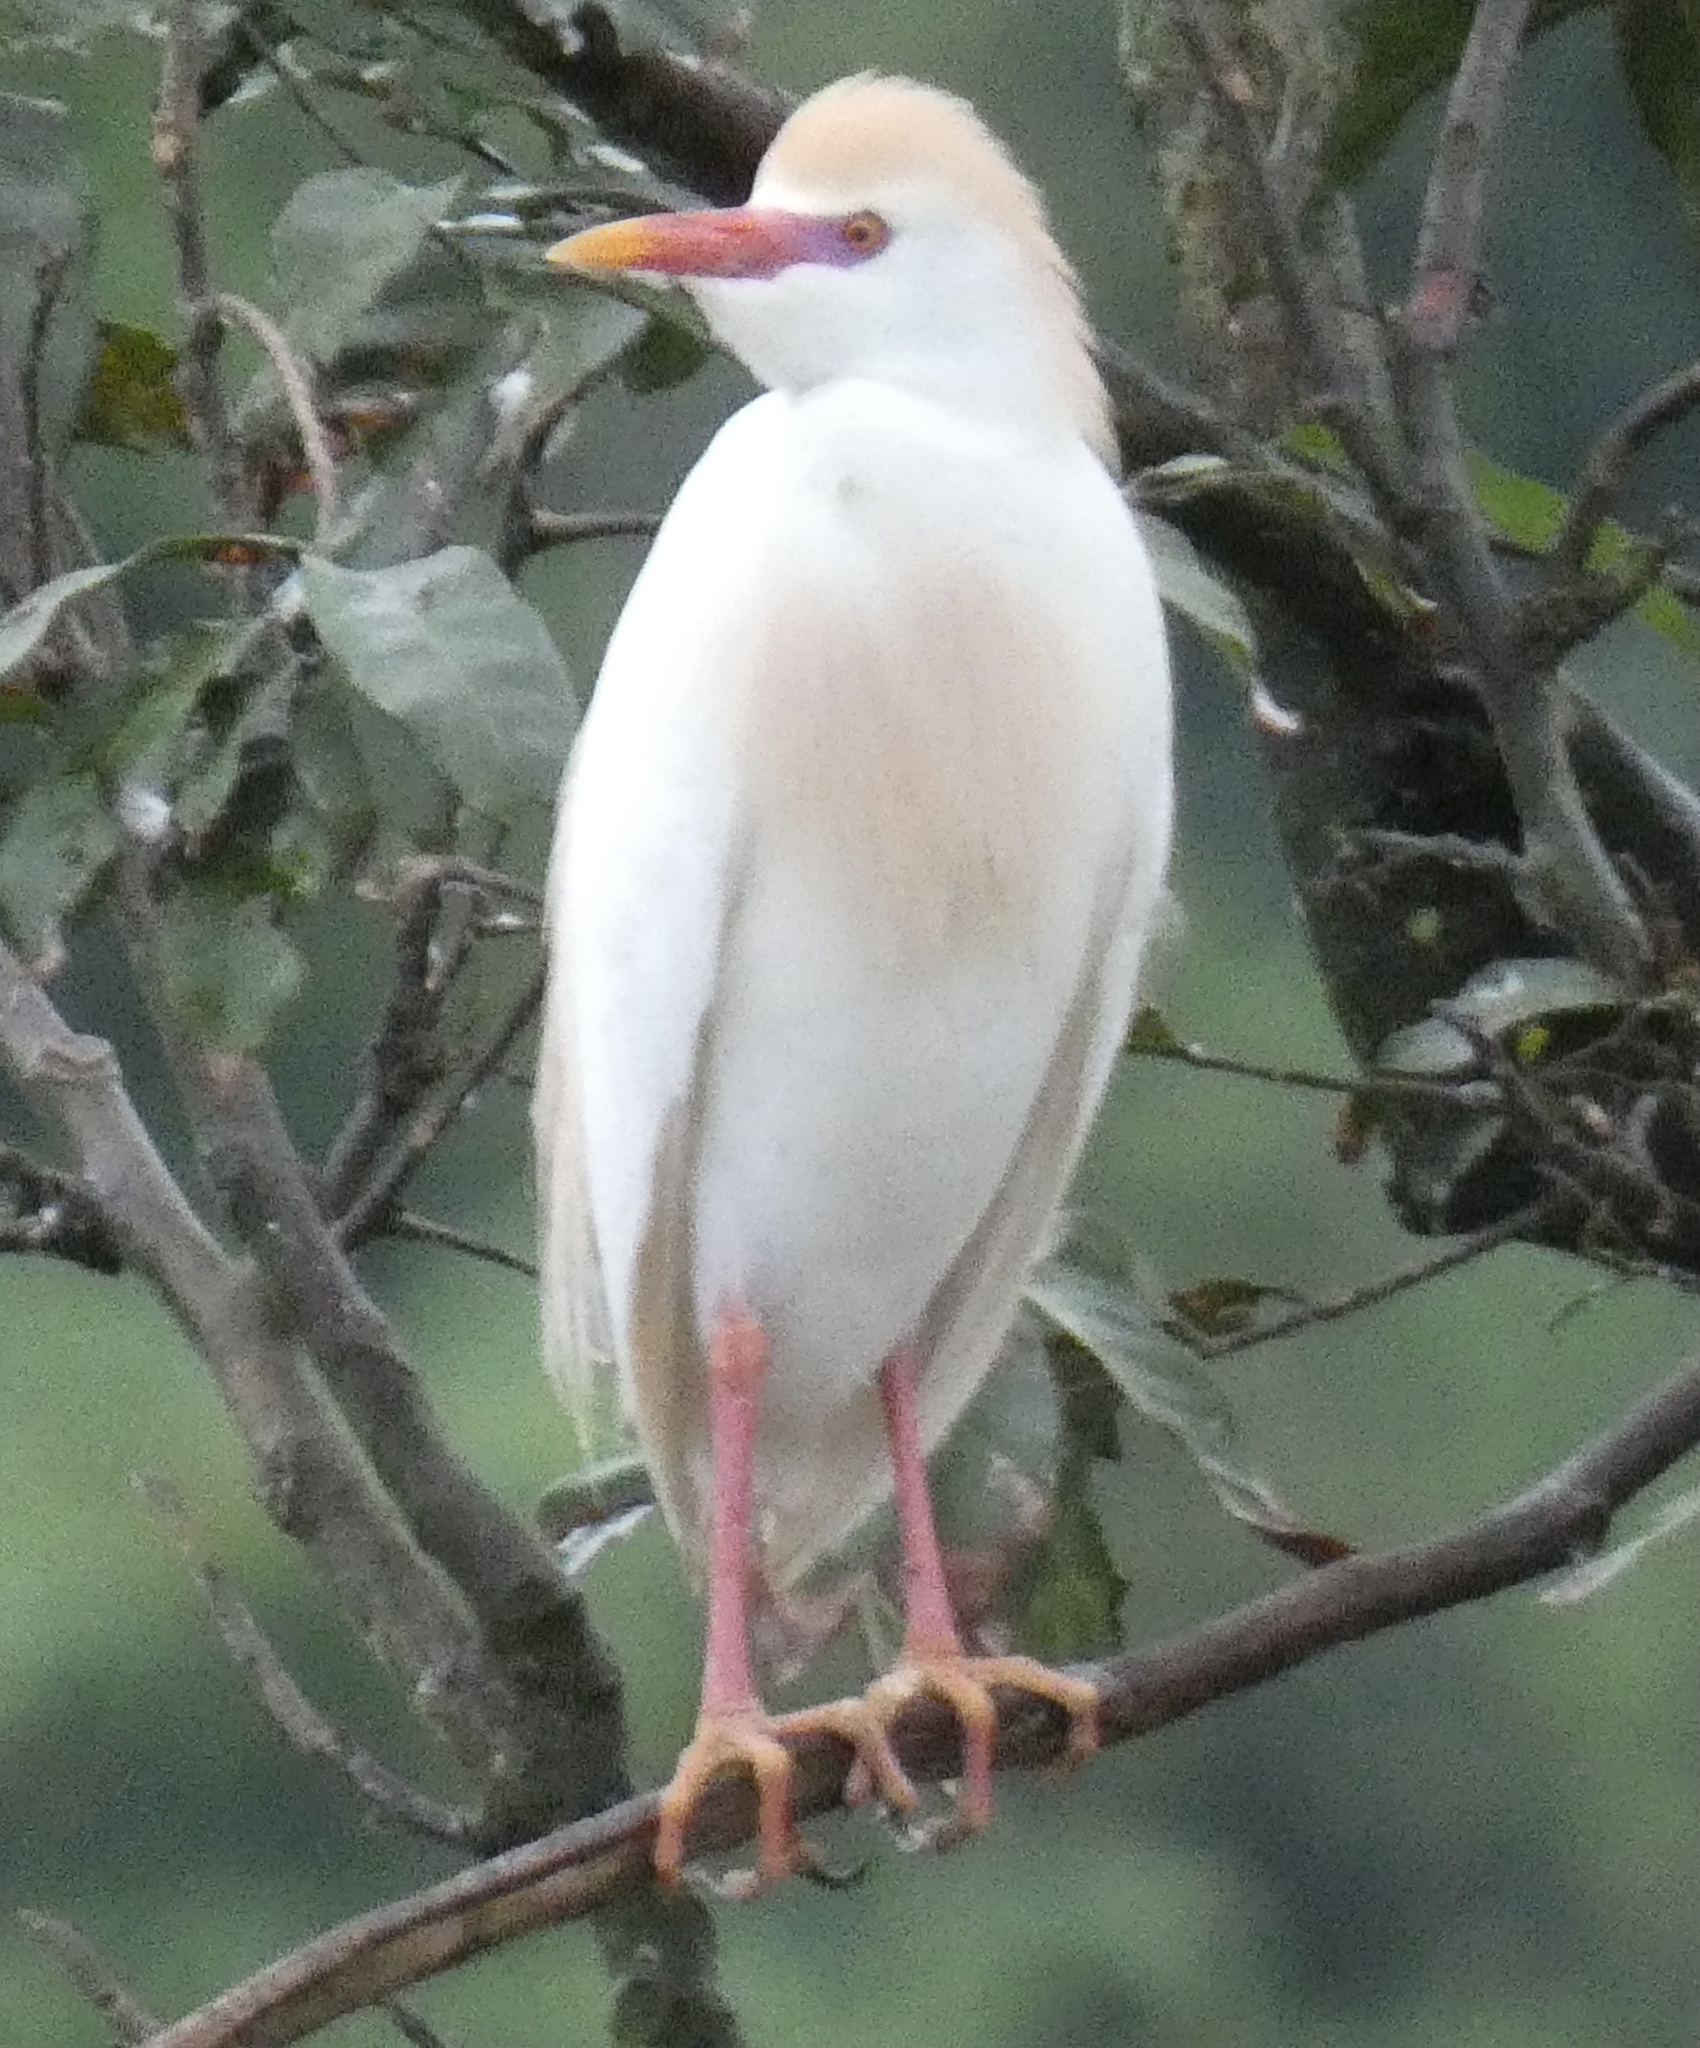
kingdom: Animalia
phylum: Chordata
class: Aves
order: Pelecaniformes
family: Ardeidae
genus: Bubulcus
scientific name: Bubulcus ibis
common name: Cattle egret
